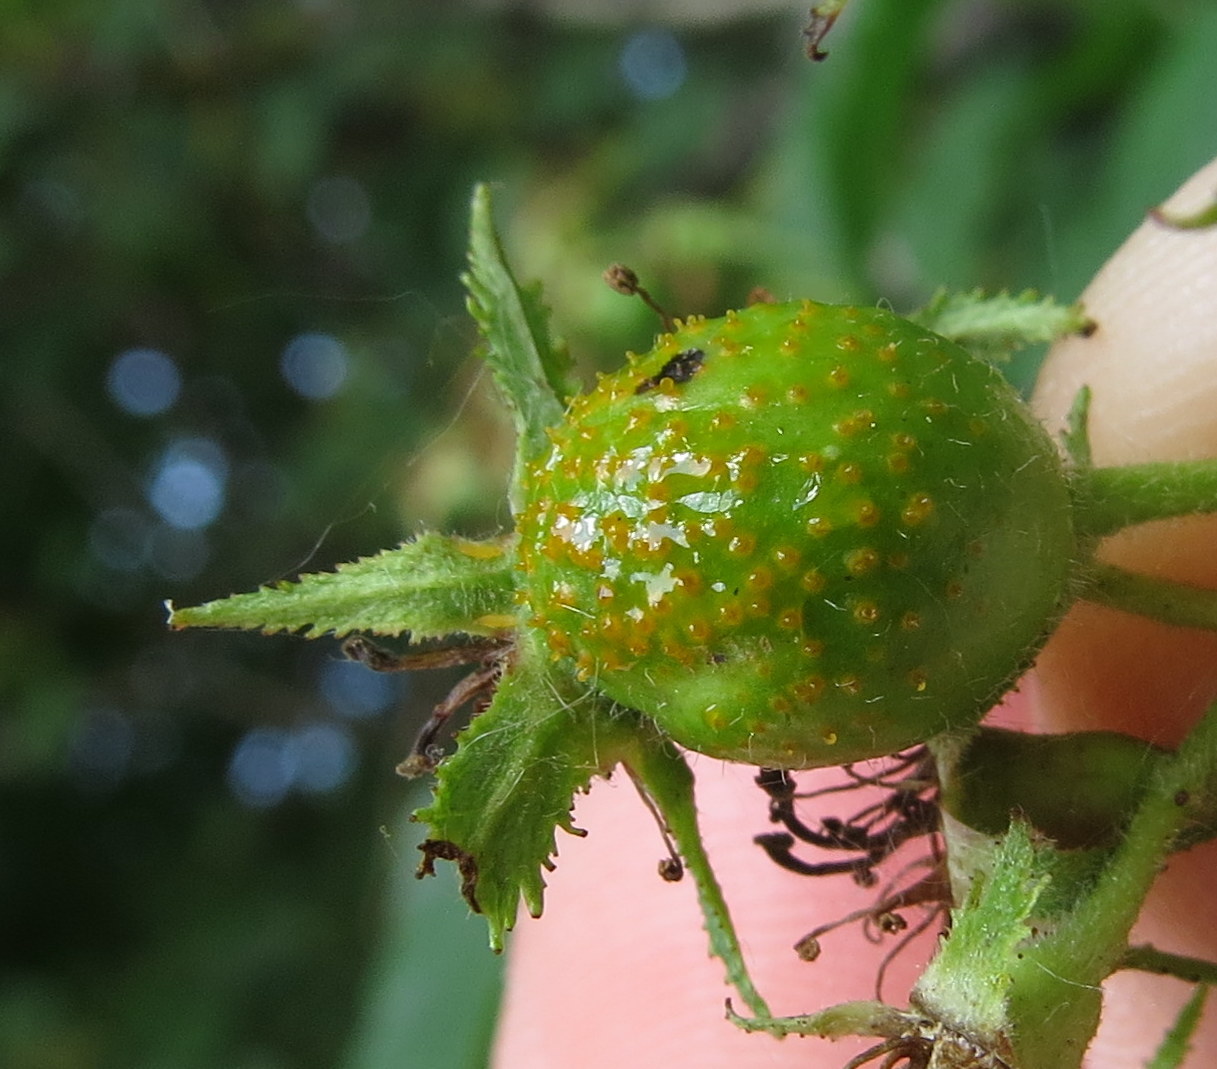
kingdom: Fungi
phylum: Basidiomycota
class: Pucciniomycetes
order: Pucciniales
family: Gymnosporangiaceae
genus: Gymnosporangium
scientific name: Gymnosporangium globosum
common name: Juniper-hawthorn rust
